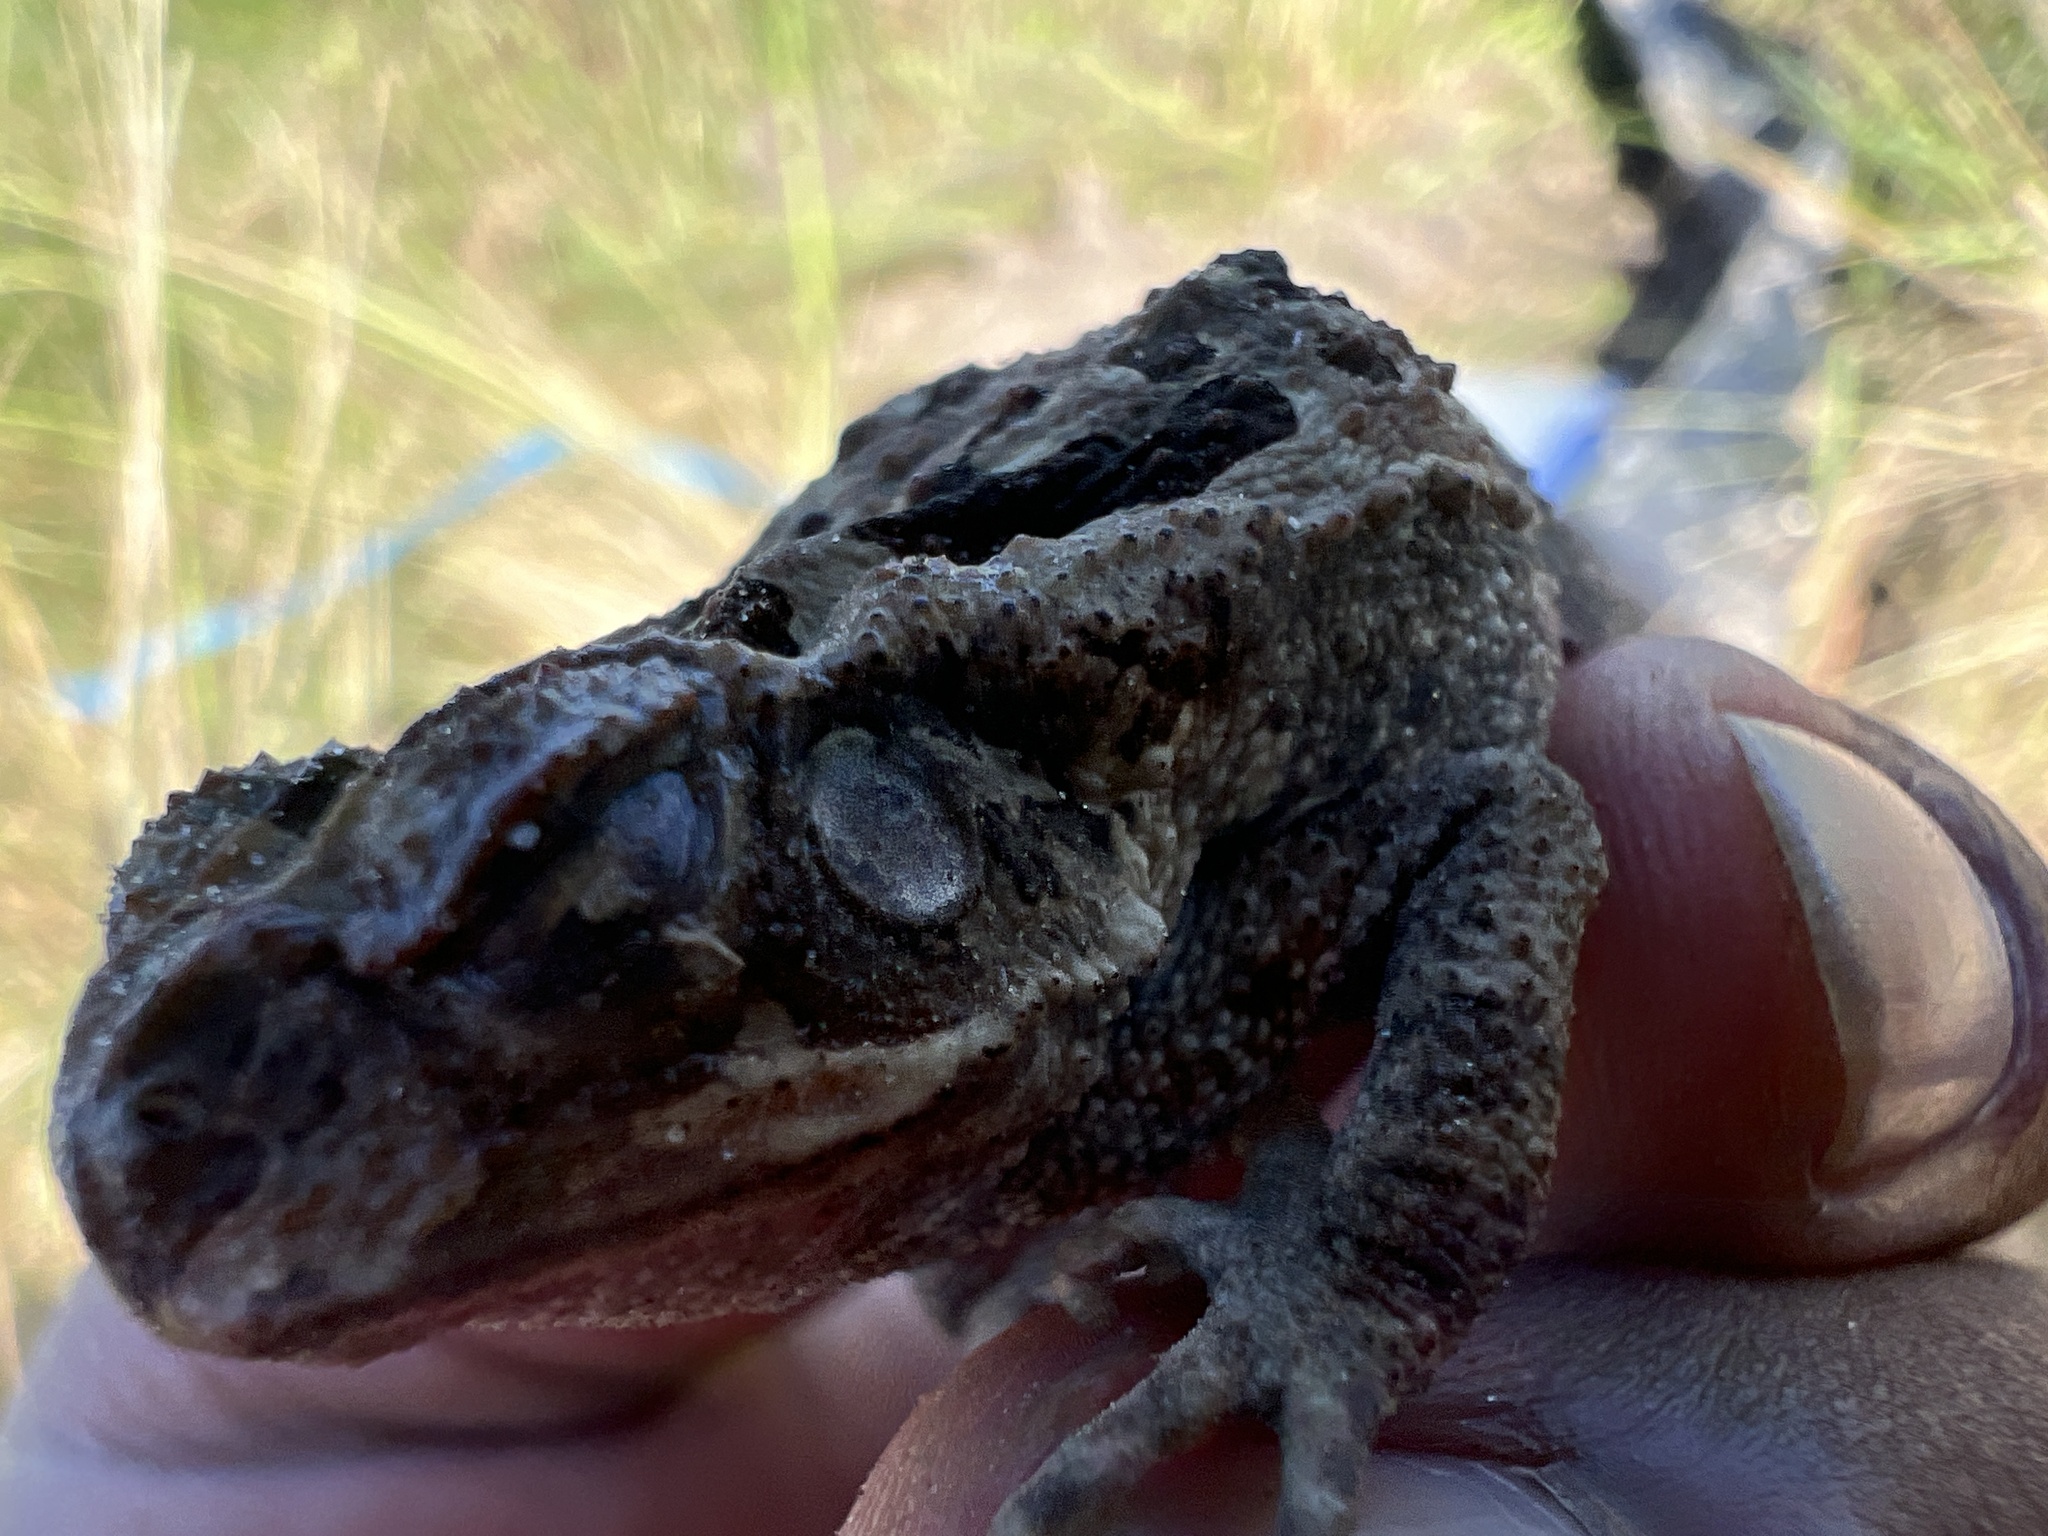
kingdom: Animalia
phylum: Chordata
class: Amphibia
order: Anura
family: Bufonidae
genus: Rhinella
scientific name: Rhinella diptycha
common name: Cope's toad
